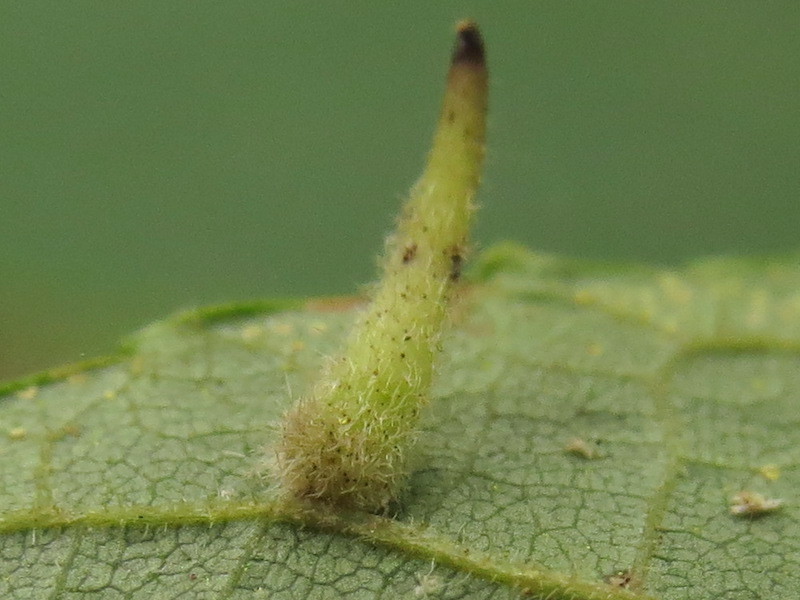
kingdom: Animalia
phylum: Arthropoda
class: Insecta
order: Diptera
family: Cecidomyiidae
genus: Caryomyia
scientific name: Caryomyia spinulosa
